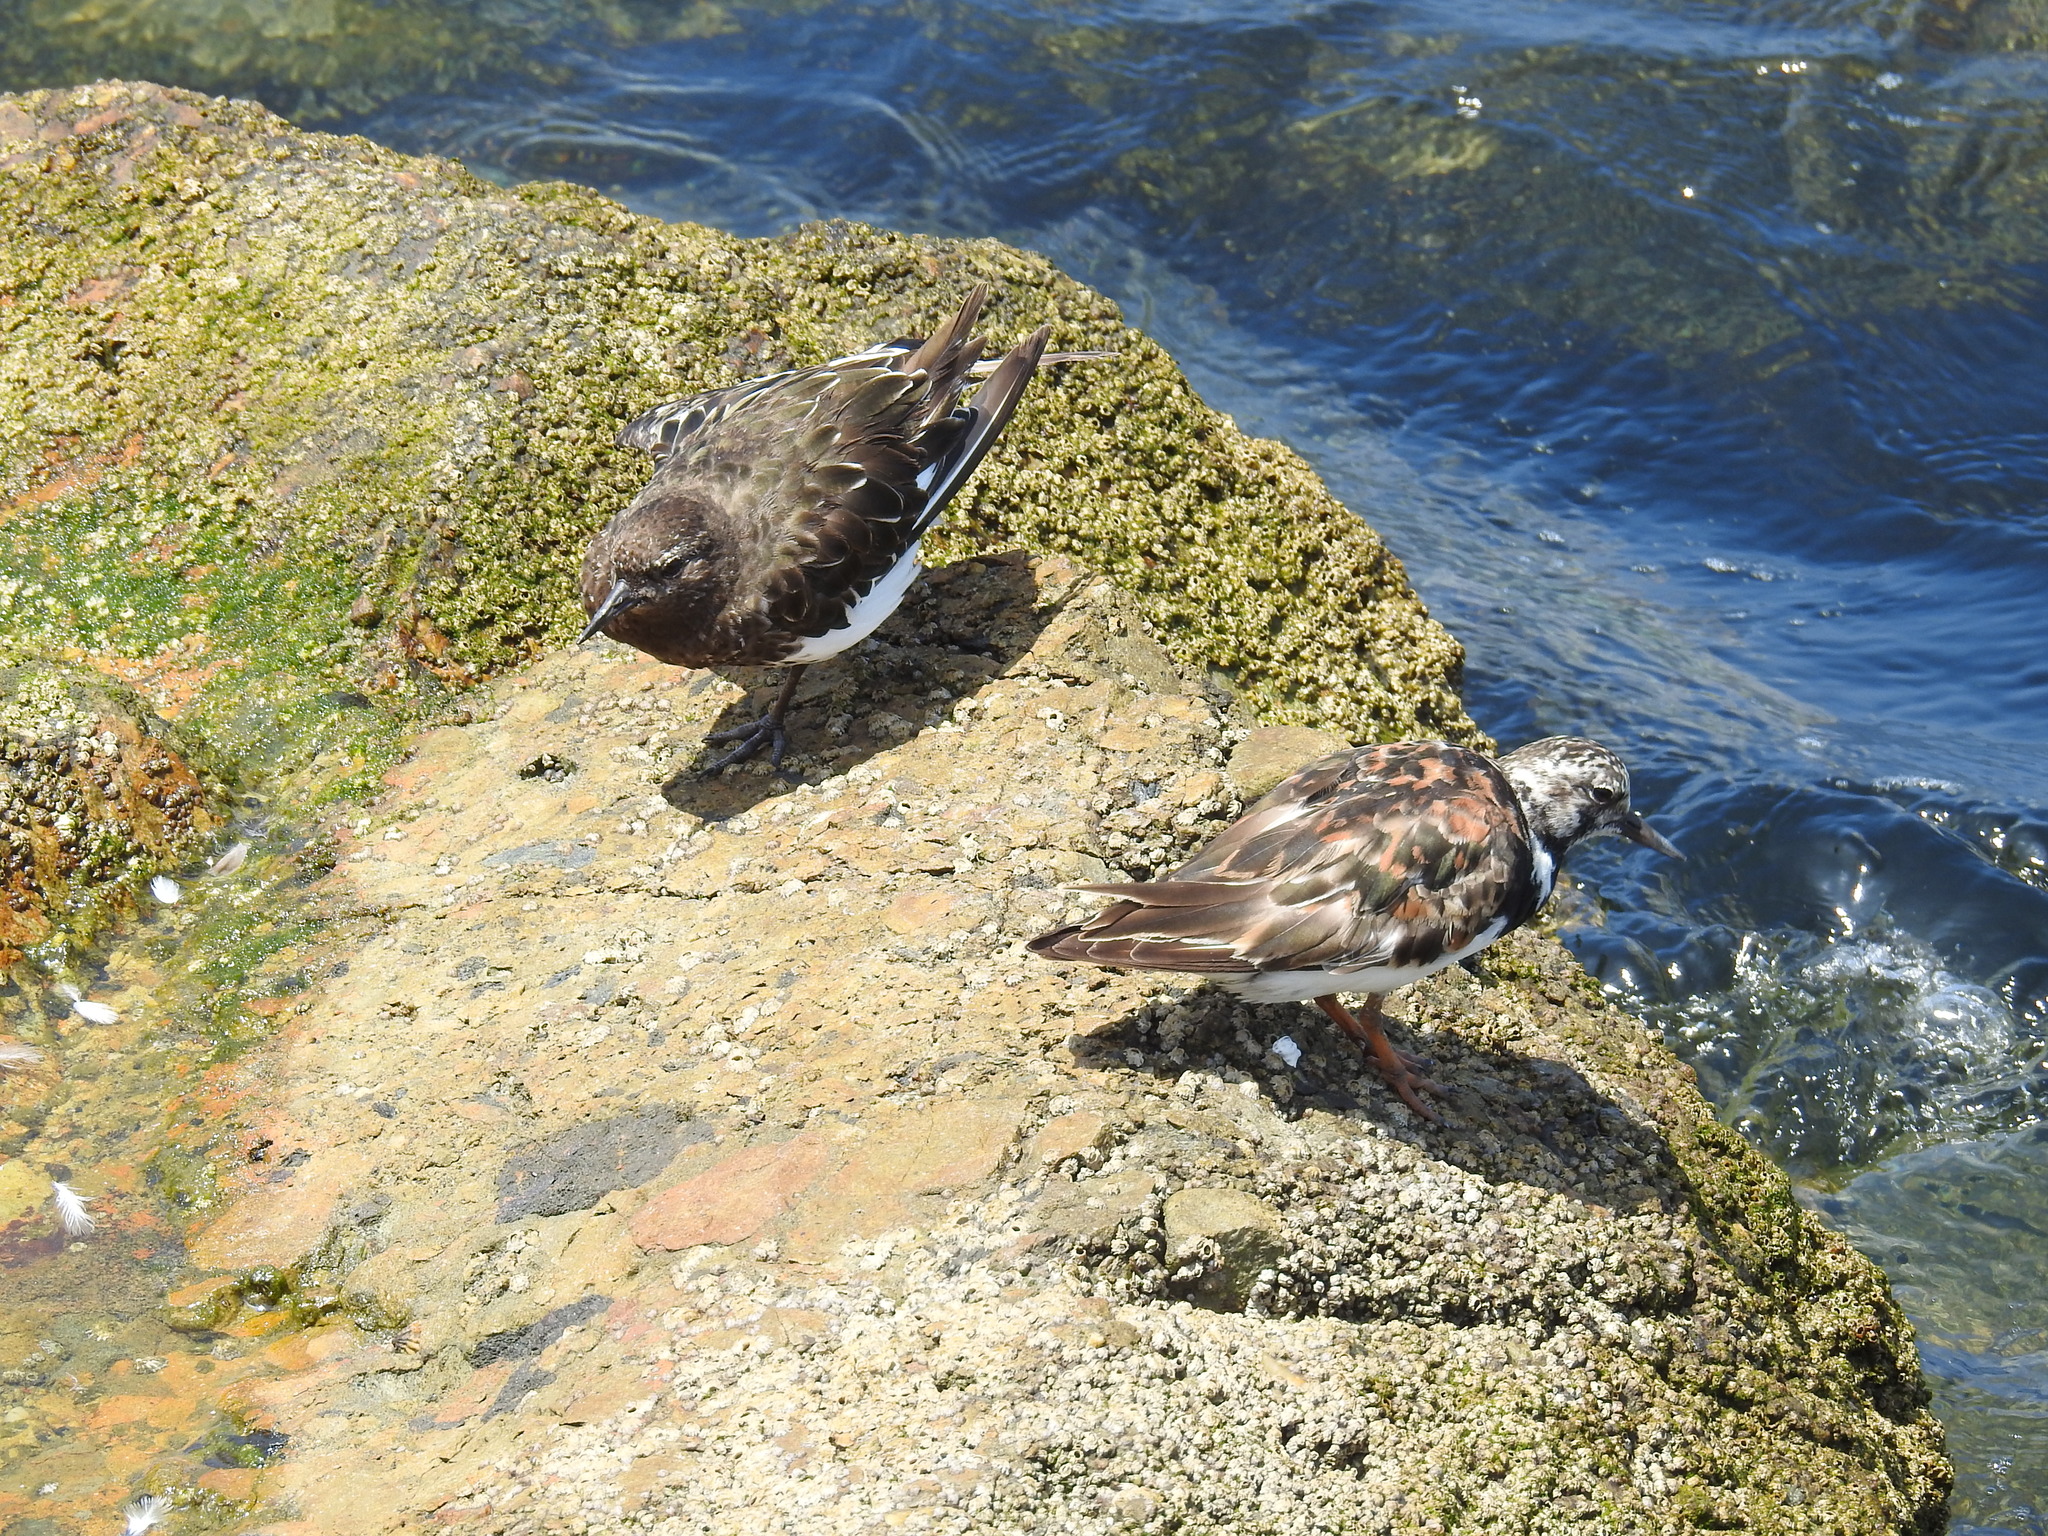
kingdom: Animalia
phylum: Chordata
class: Aves
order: Charadriiformes
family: Scolopacidae
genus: Arenaria
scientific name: Arenaria interpres
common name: Ruddy turnstone
